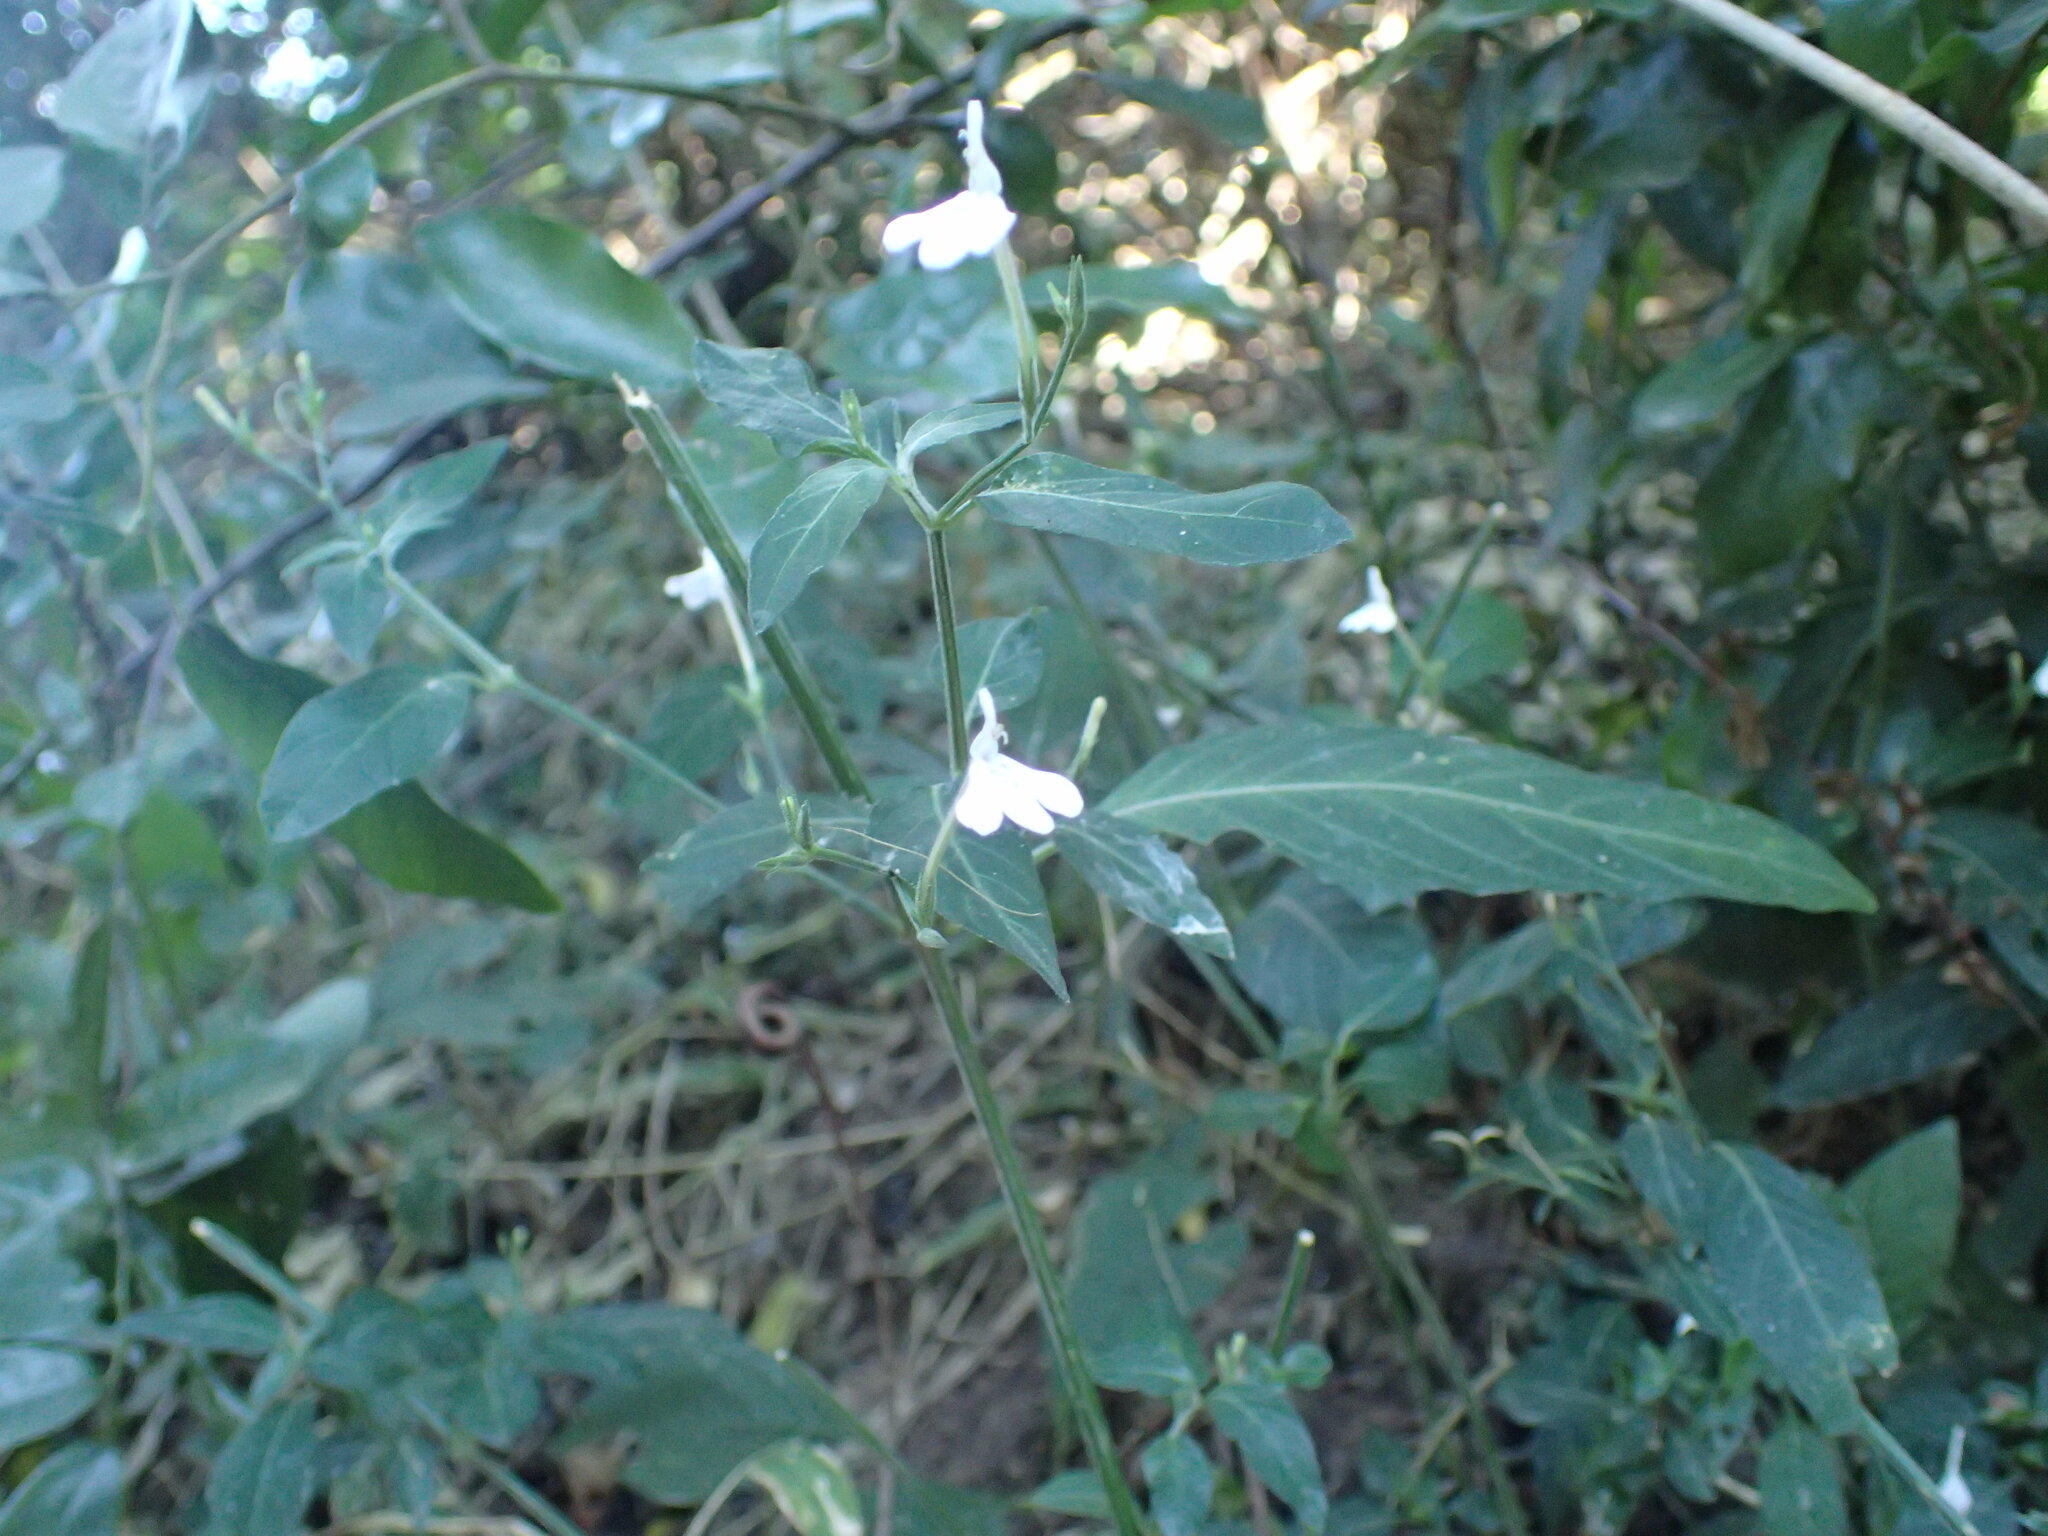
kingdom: Plantae
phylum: Tracheophyta
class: Magnoliopsida
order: Lamiales
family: Acanthaceae
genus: Rhinacanthus
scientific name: Rhinacanthus latilabiatus
